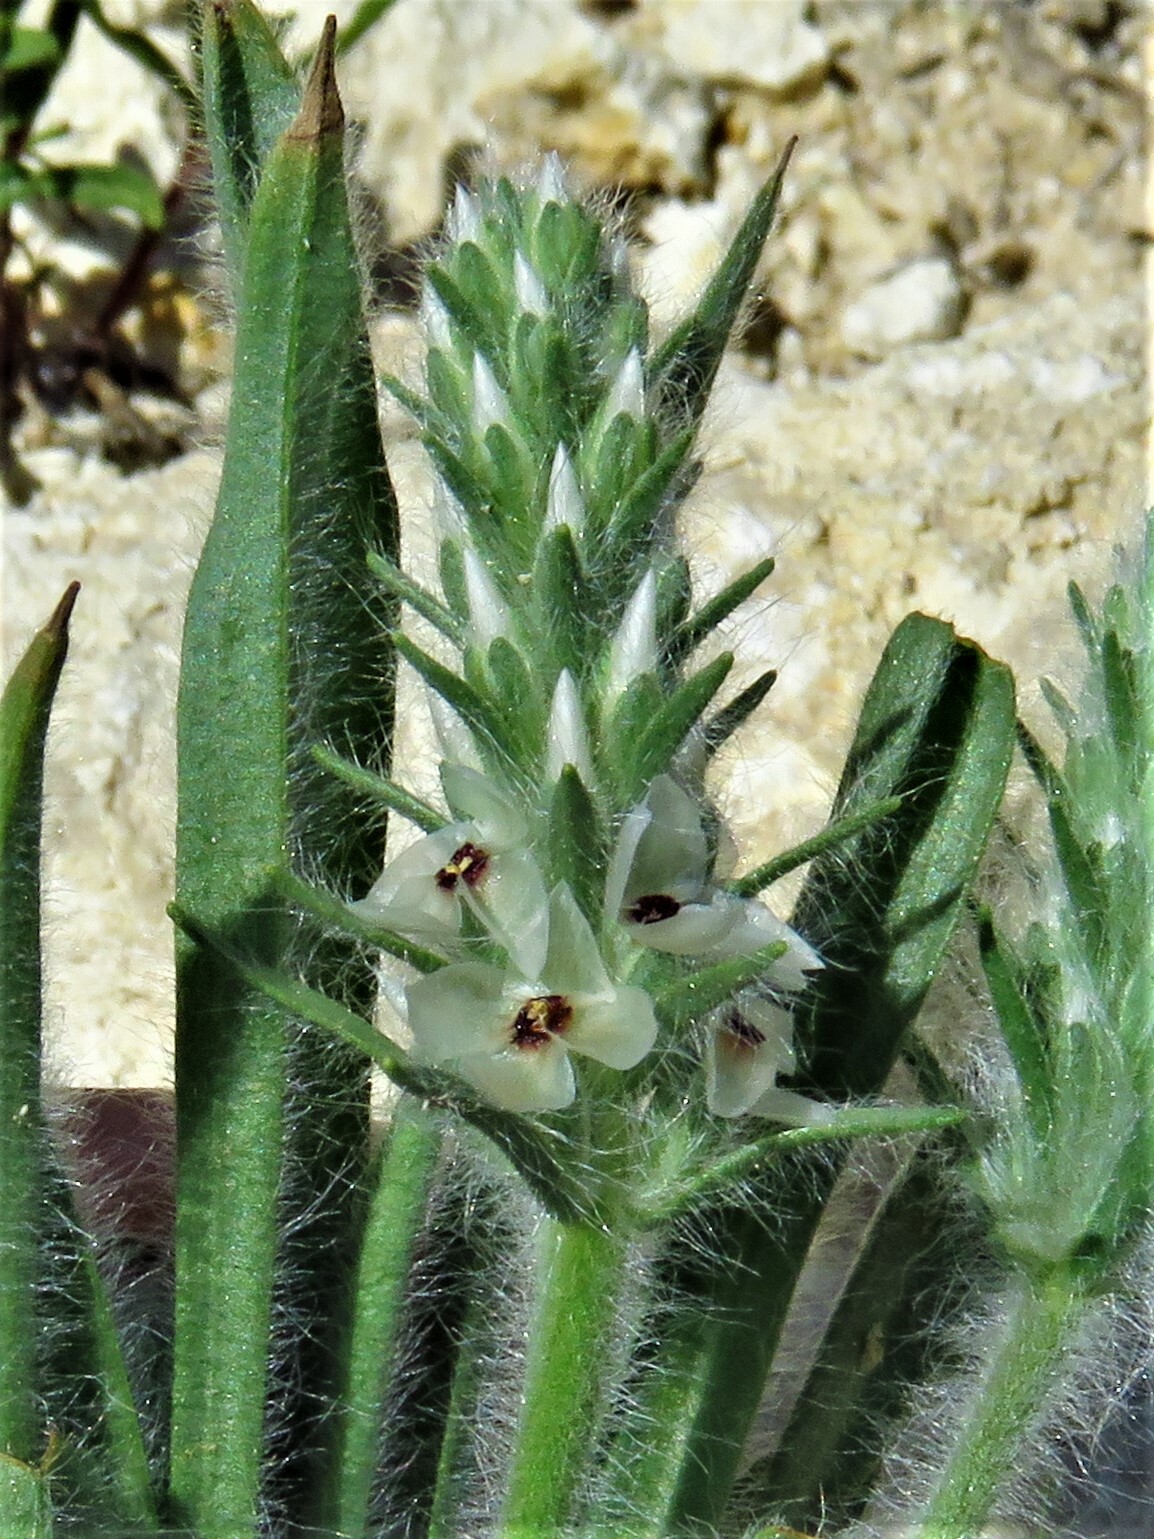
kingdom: Plantae
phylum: Tracheophyta
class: Magnoliopsida
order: Lamiales
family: Plantaginaceae
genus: Plantago
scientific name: Plantago helleri
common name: Heller's plantain
